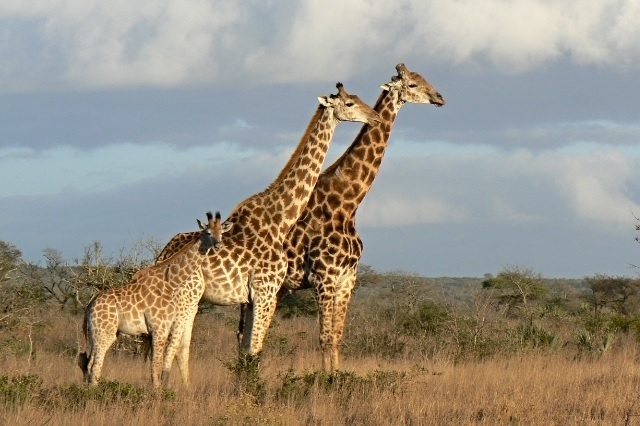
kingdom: Animalia
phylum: Chordata
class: Mammalia
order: Artiodactyla
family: Giraffidae
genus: Giraffa
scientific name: Giraffa giraffa
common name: Southern giraffe
